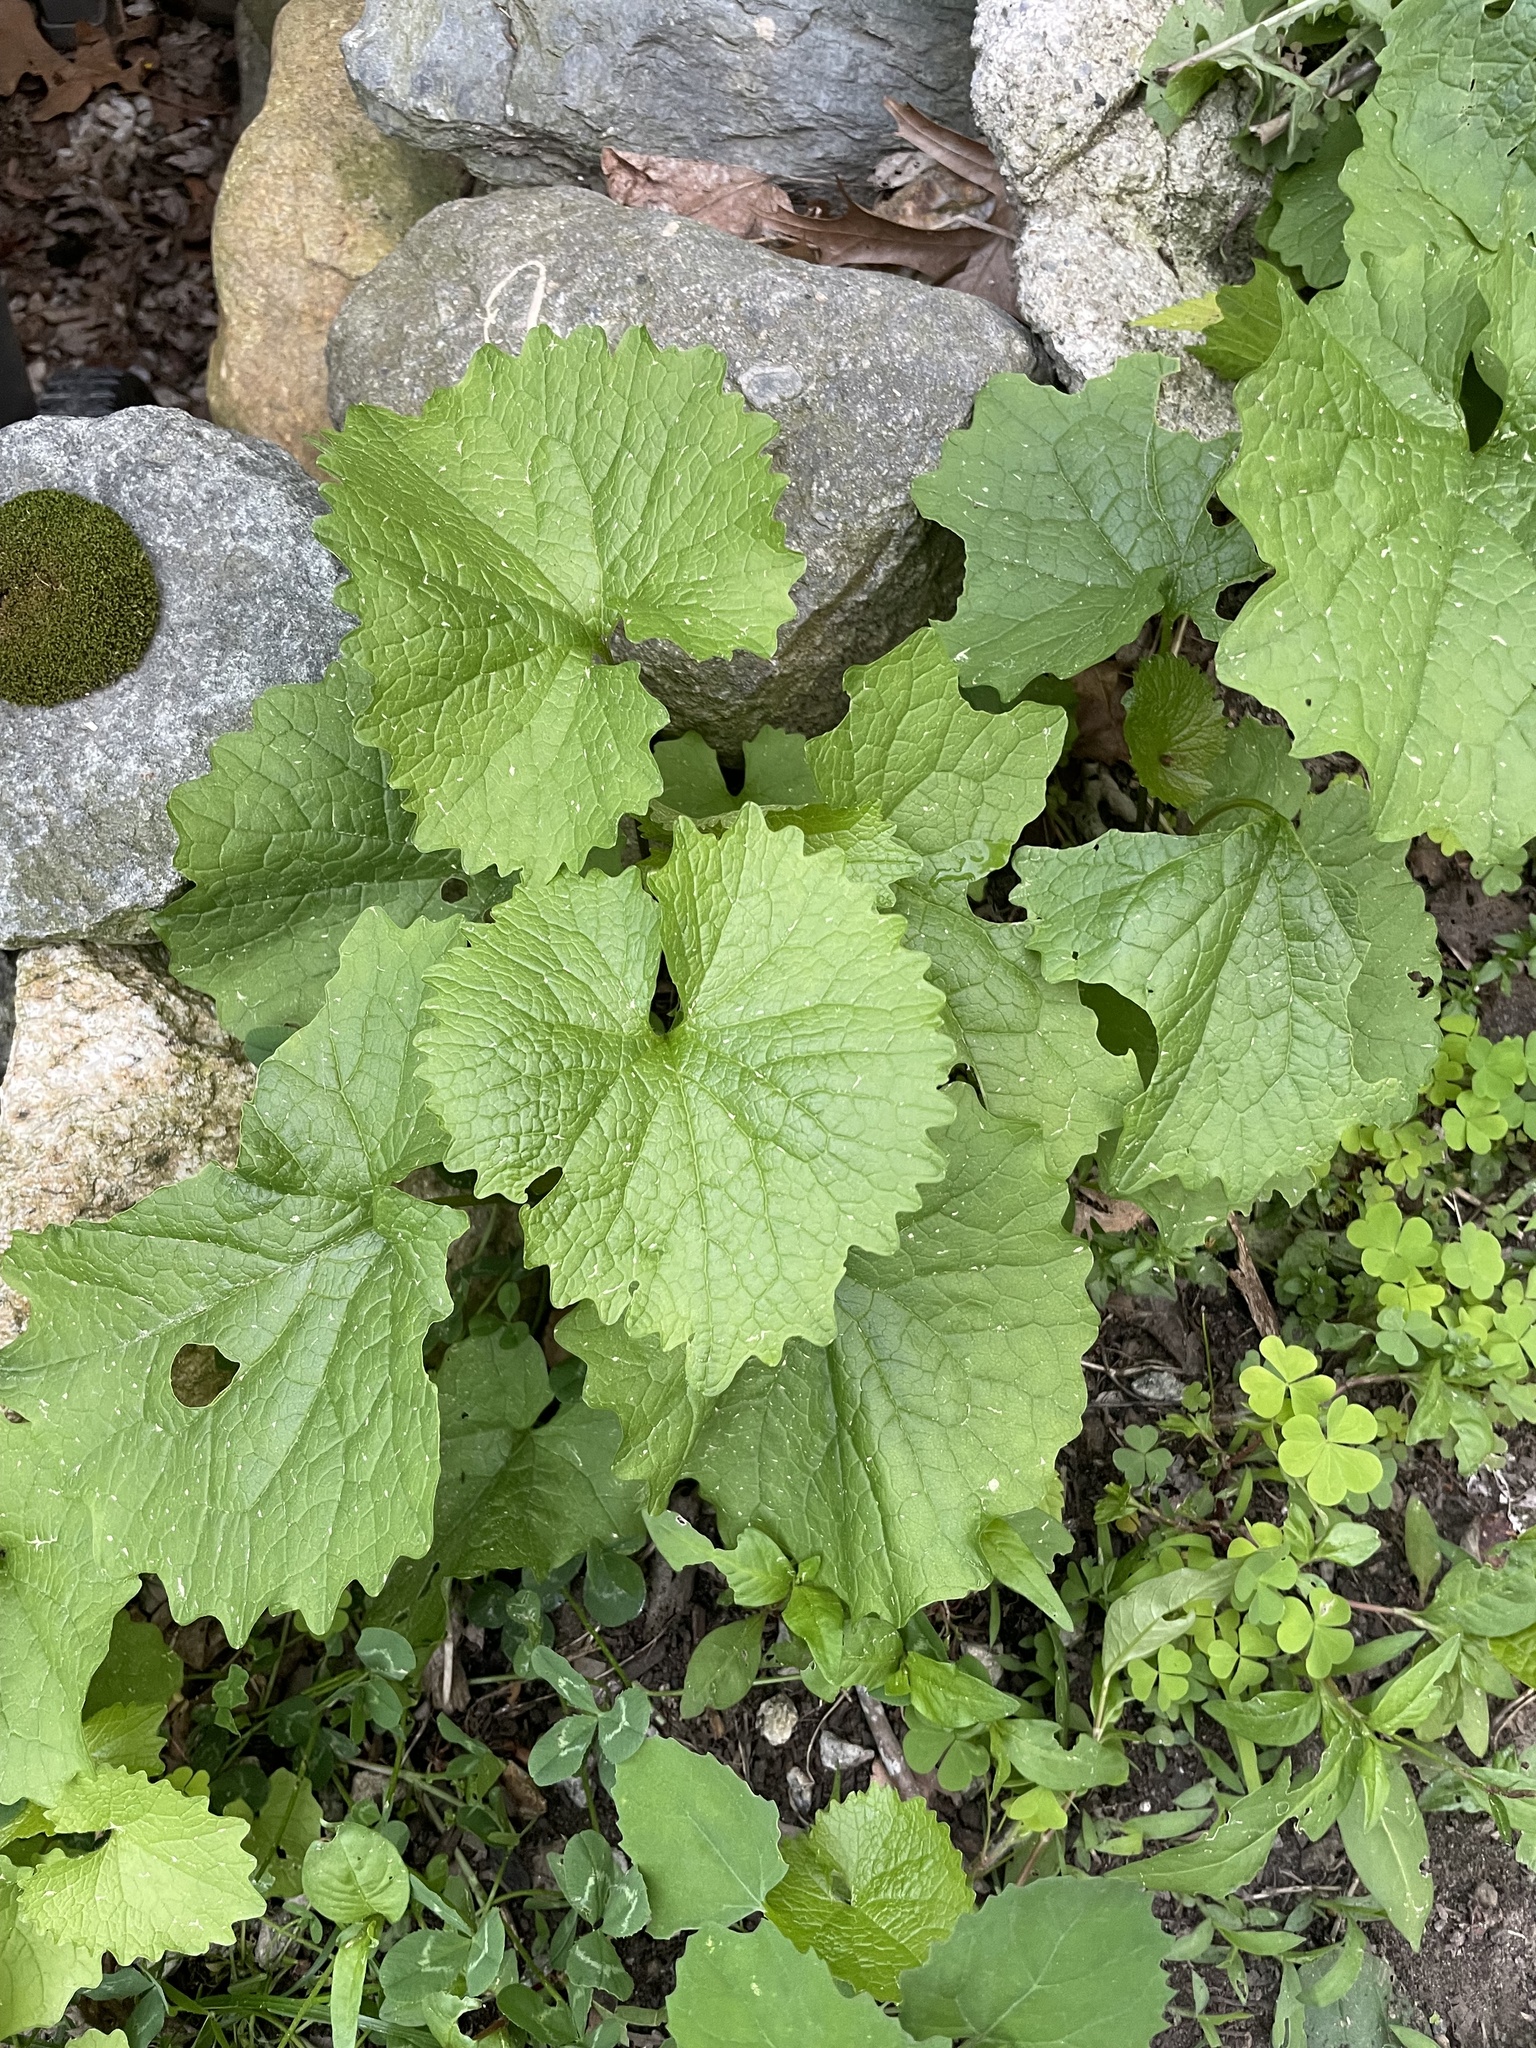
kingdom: Plantae
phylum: Tracheophyta
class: Magnoliopsida
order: Brassicales
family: Brassicaceae
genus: Alliaria
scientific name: Alliaria petiolata
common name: Garlic mustard
